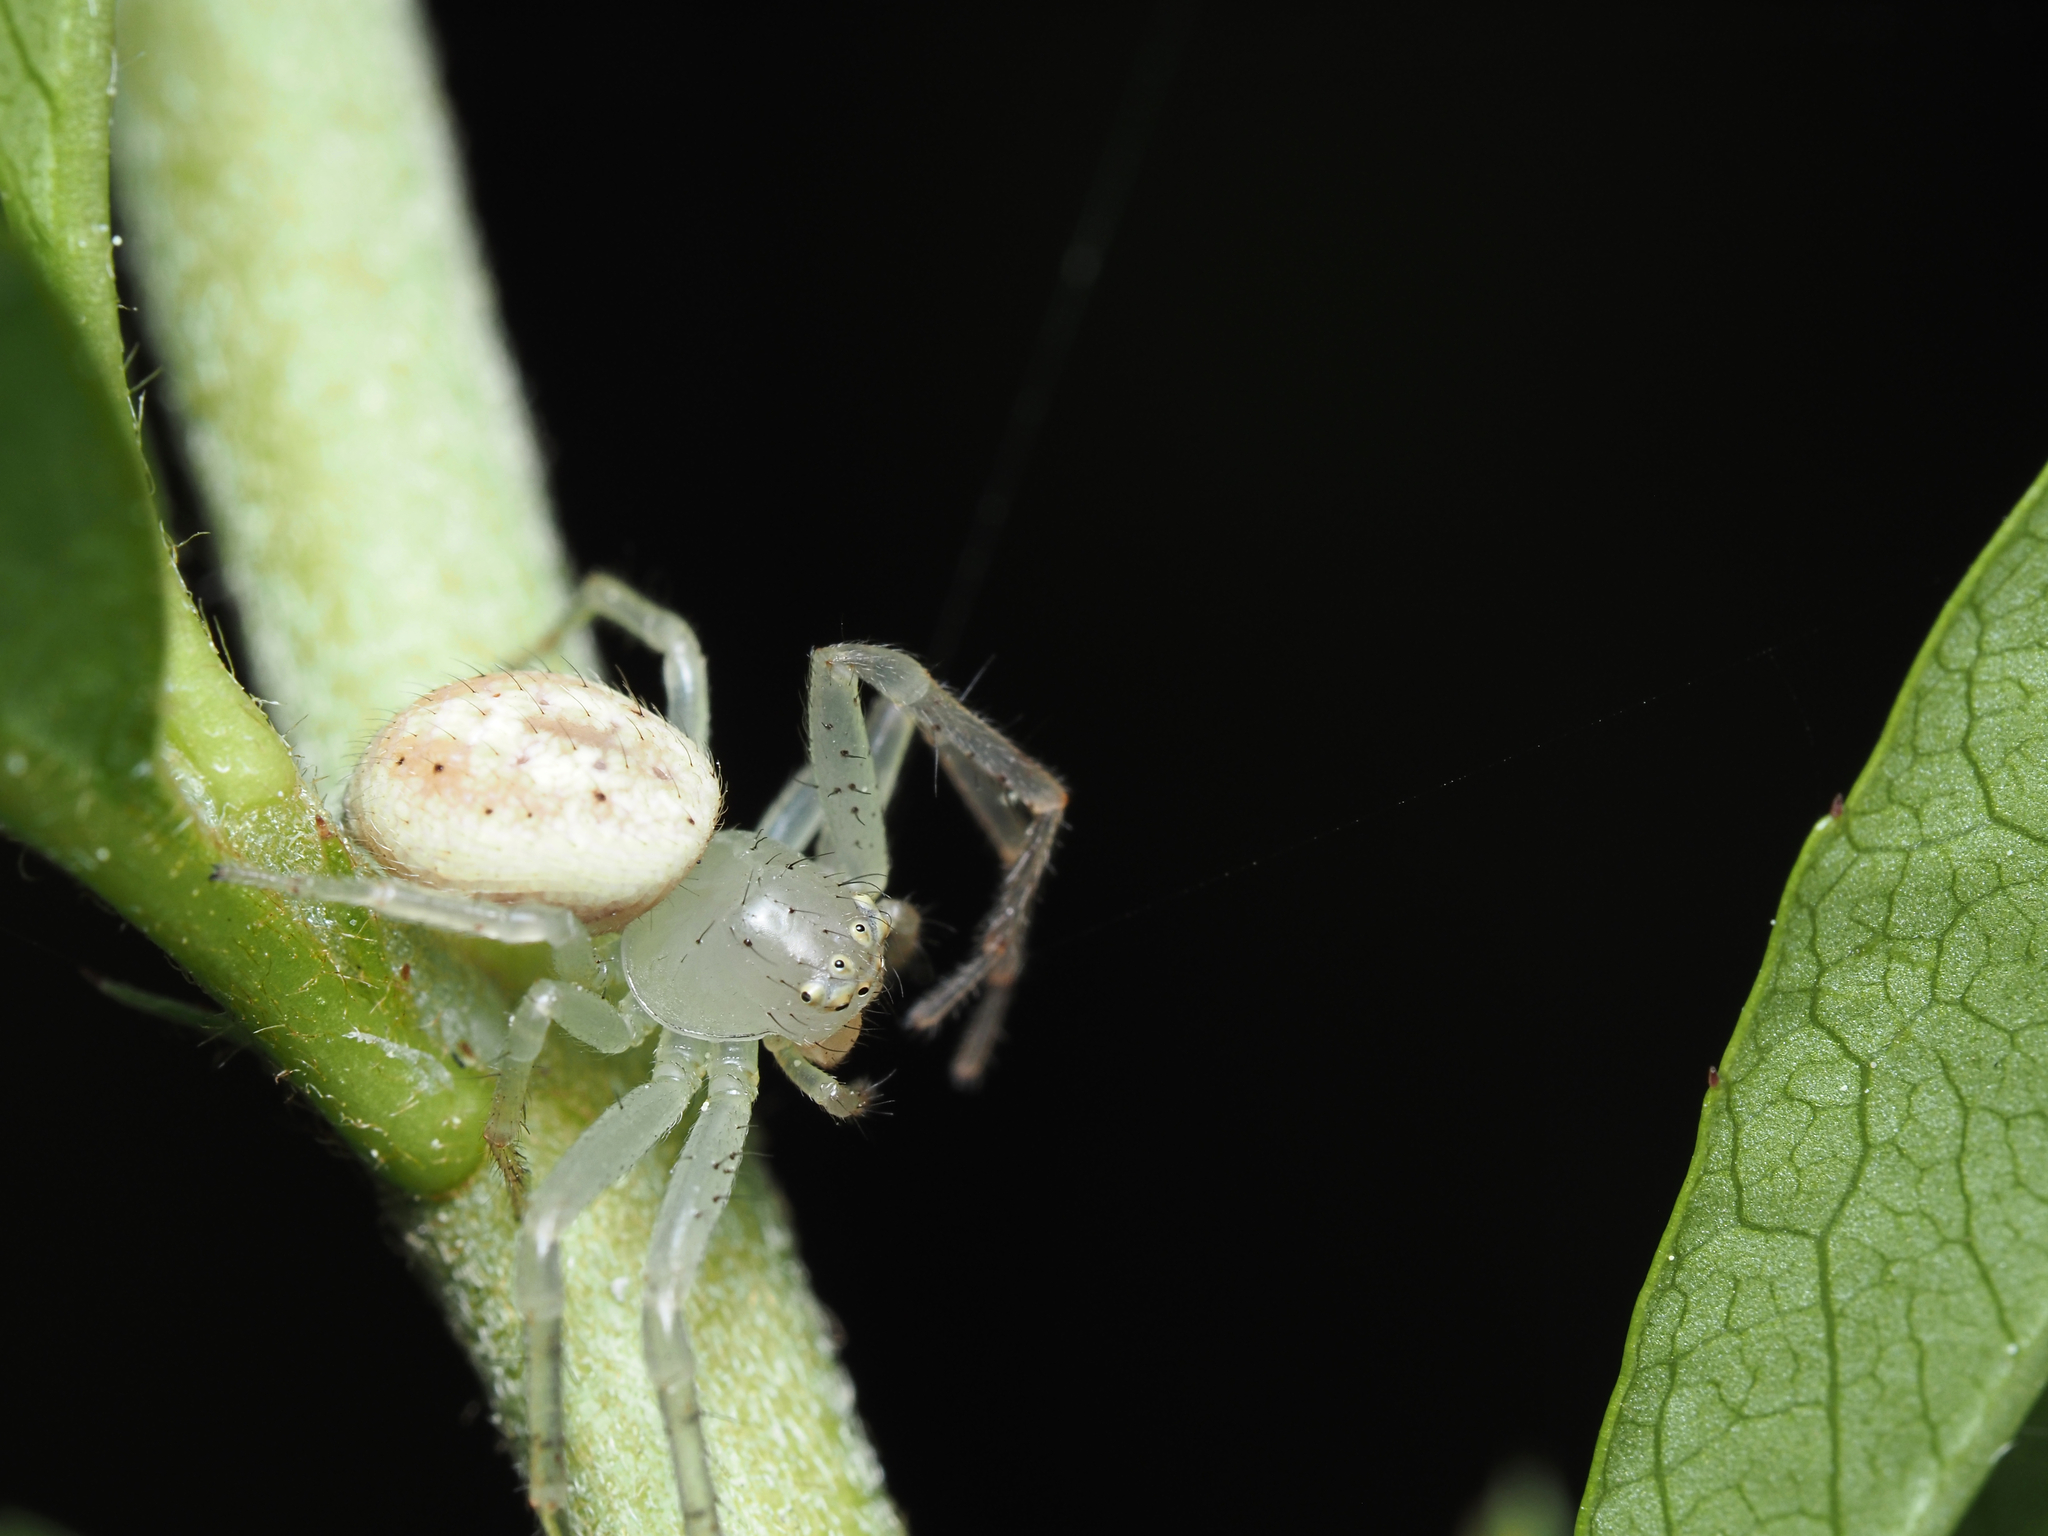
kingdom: Animalia
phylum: Arthropoda
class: Arachnida
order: Araneae
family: Thomisidae
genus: Australomisidia
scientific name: Australomisidia pilula
